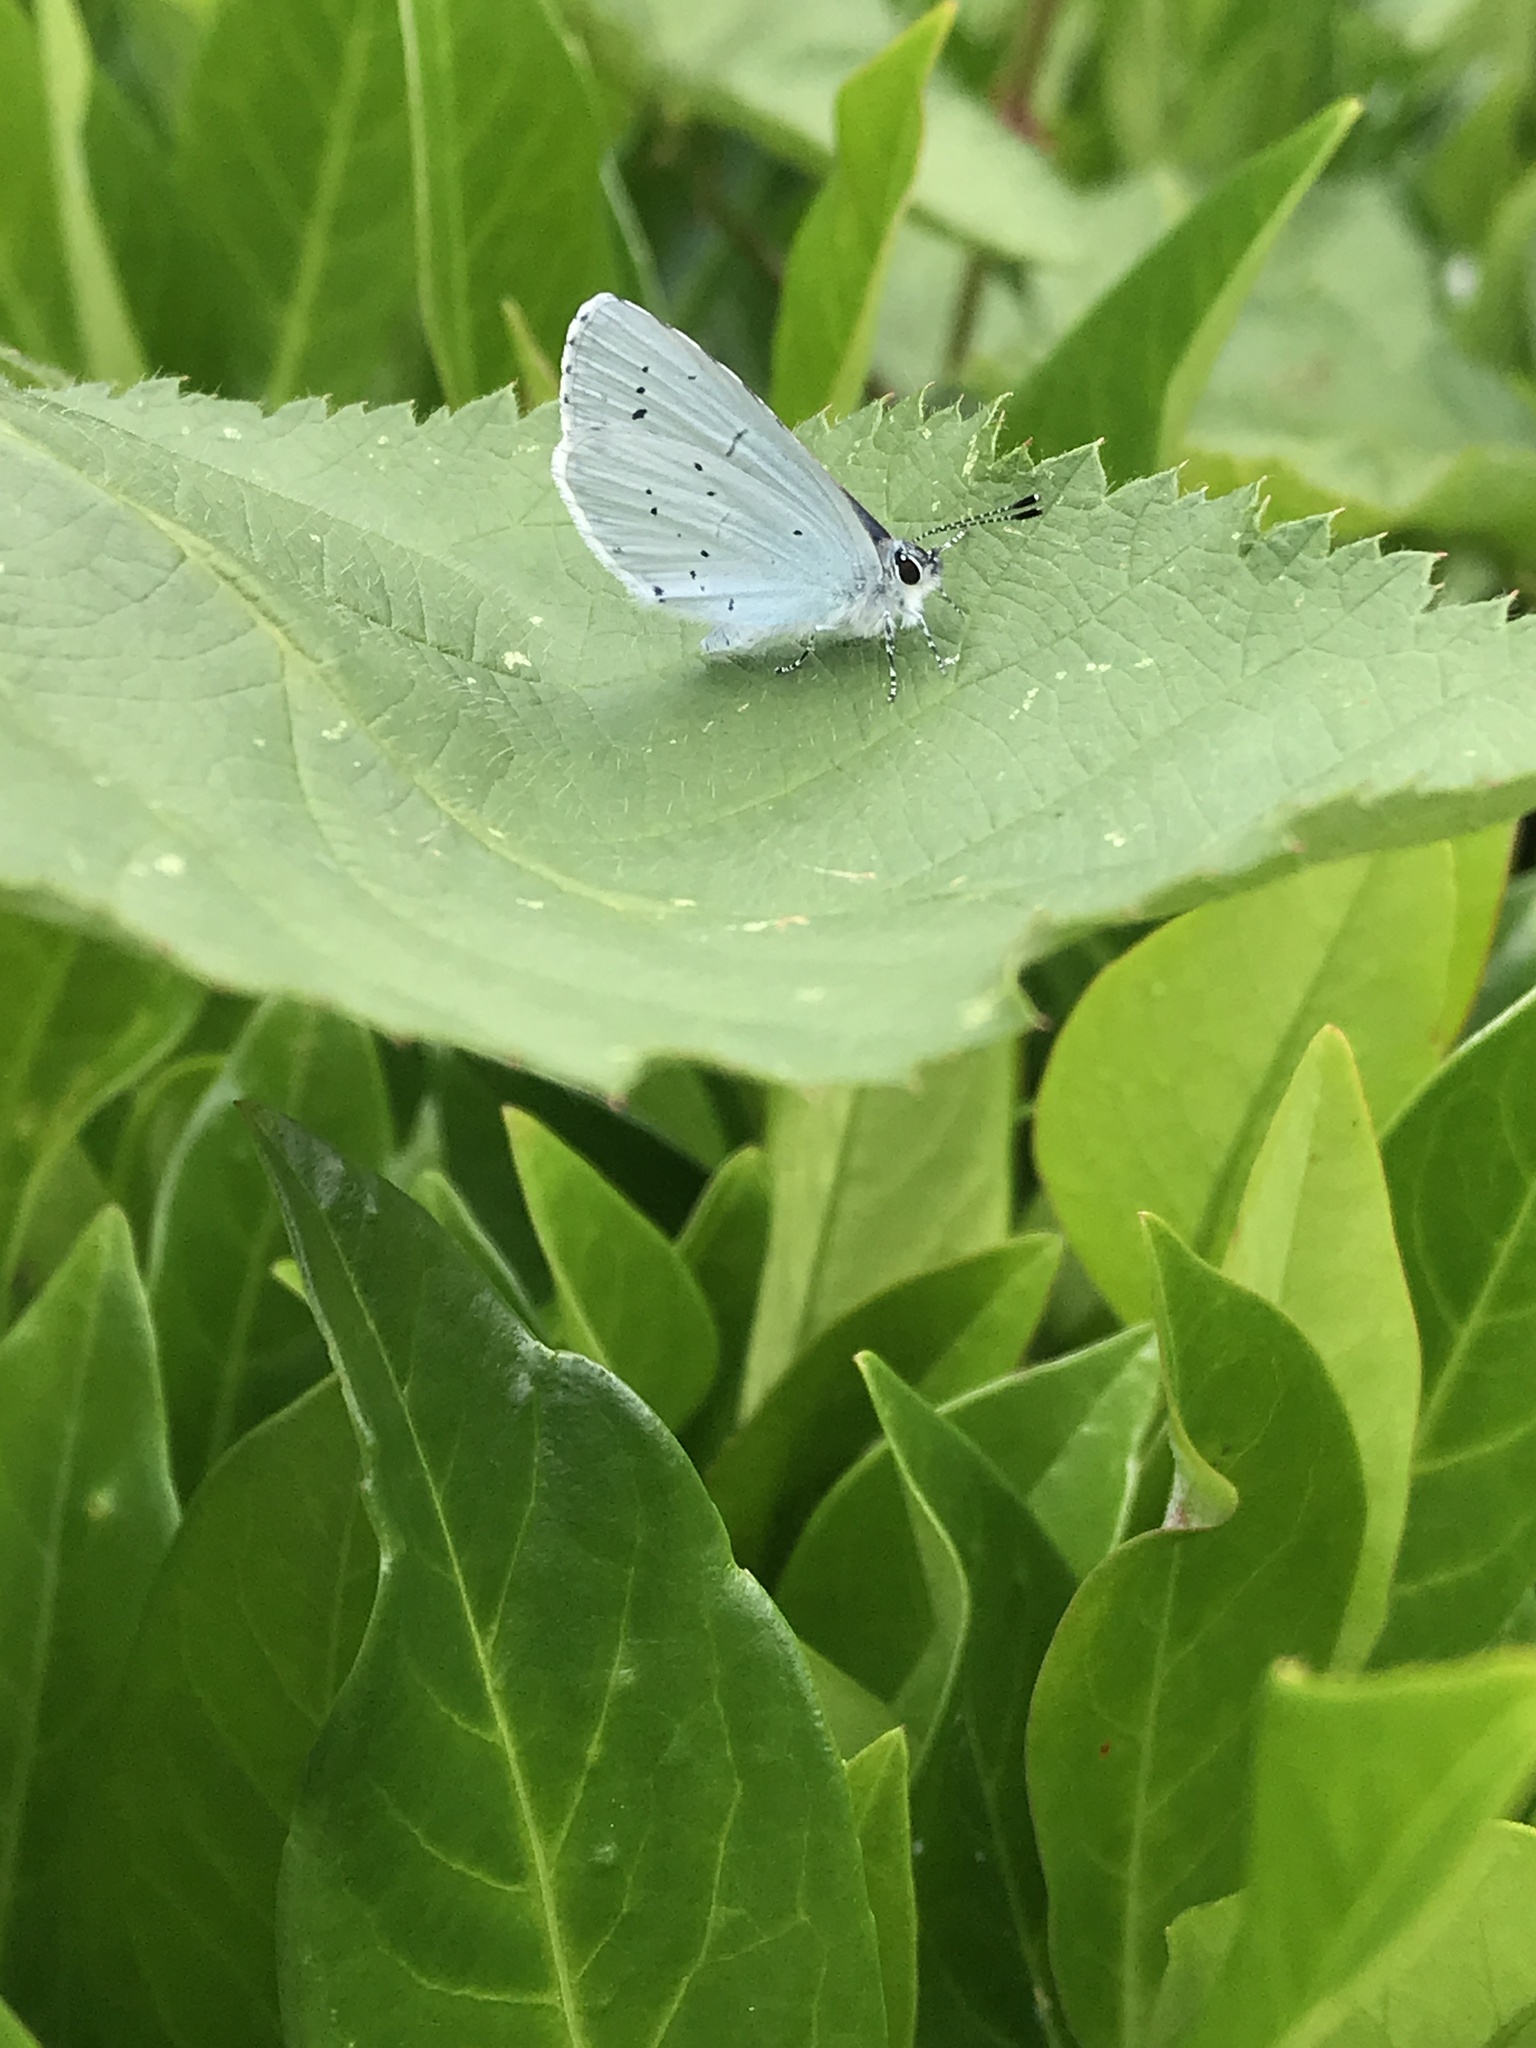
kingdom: Animalia
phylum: Arthropoda
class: Insecta
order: Lepidoptera
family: Lycaenidae
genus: Celastrina
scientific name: Celastrina argiolus
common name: Holly blue
